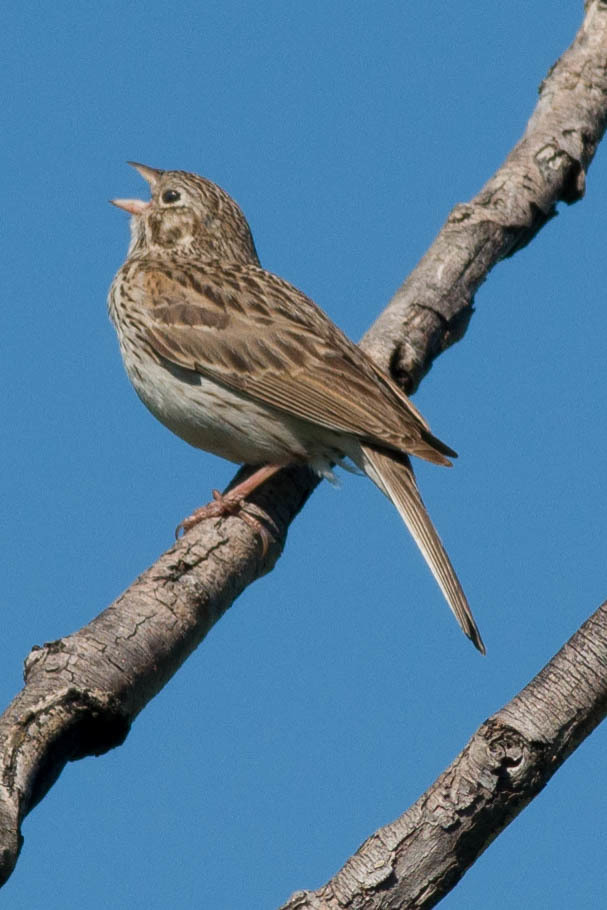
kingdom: Animalia
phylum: Chordata
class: Aves
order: Passeriformes
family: Passerellidae
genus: Pooecetes
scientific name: Pooecetes gramineus
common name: Vesper sparrow
